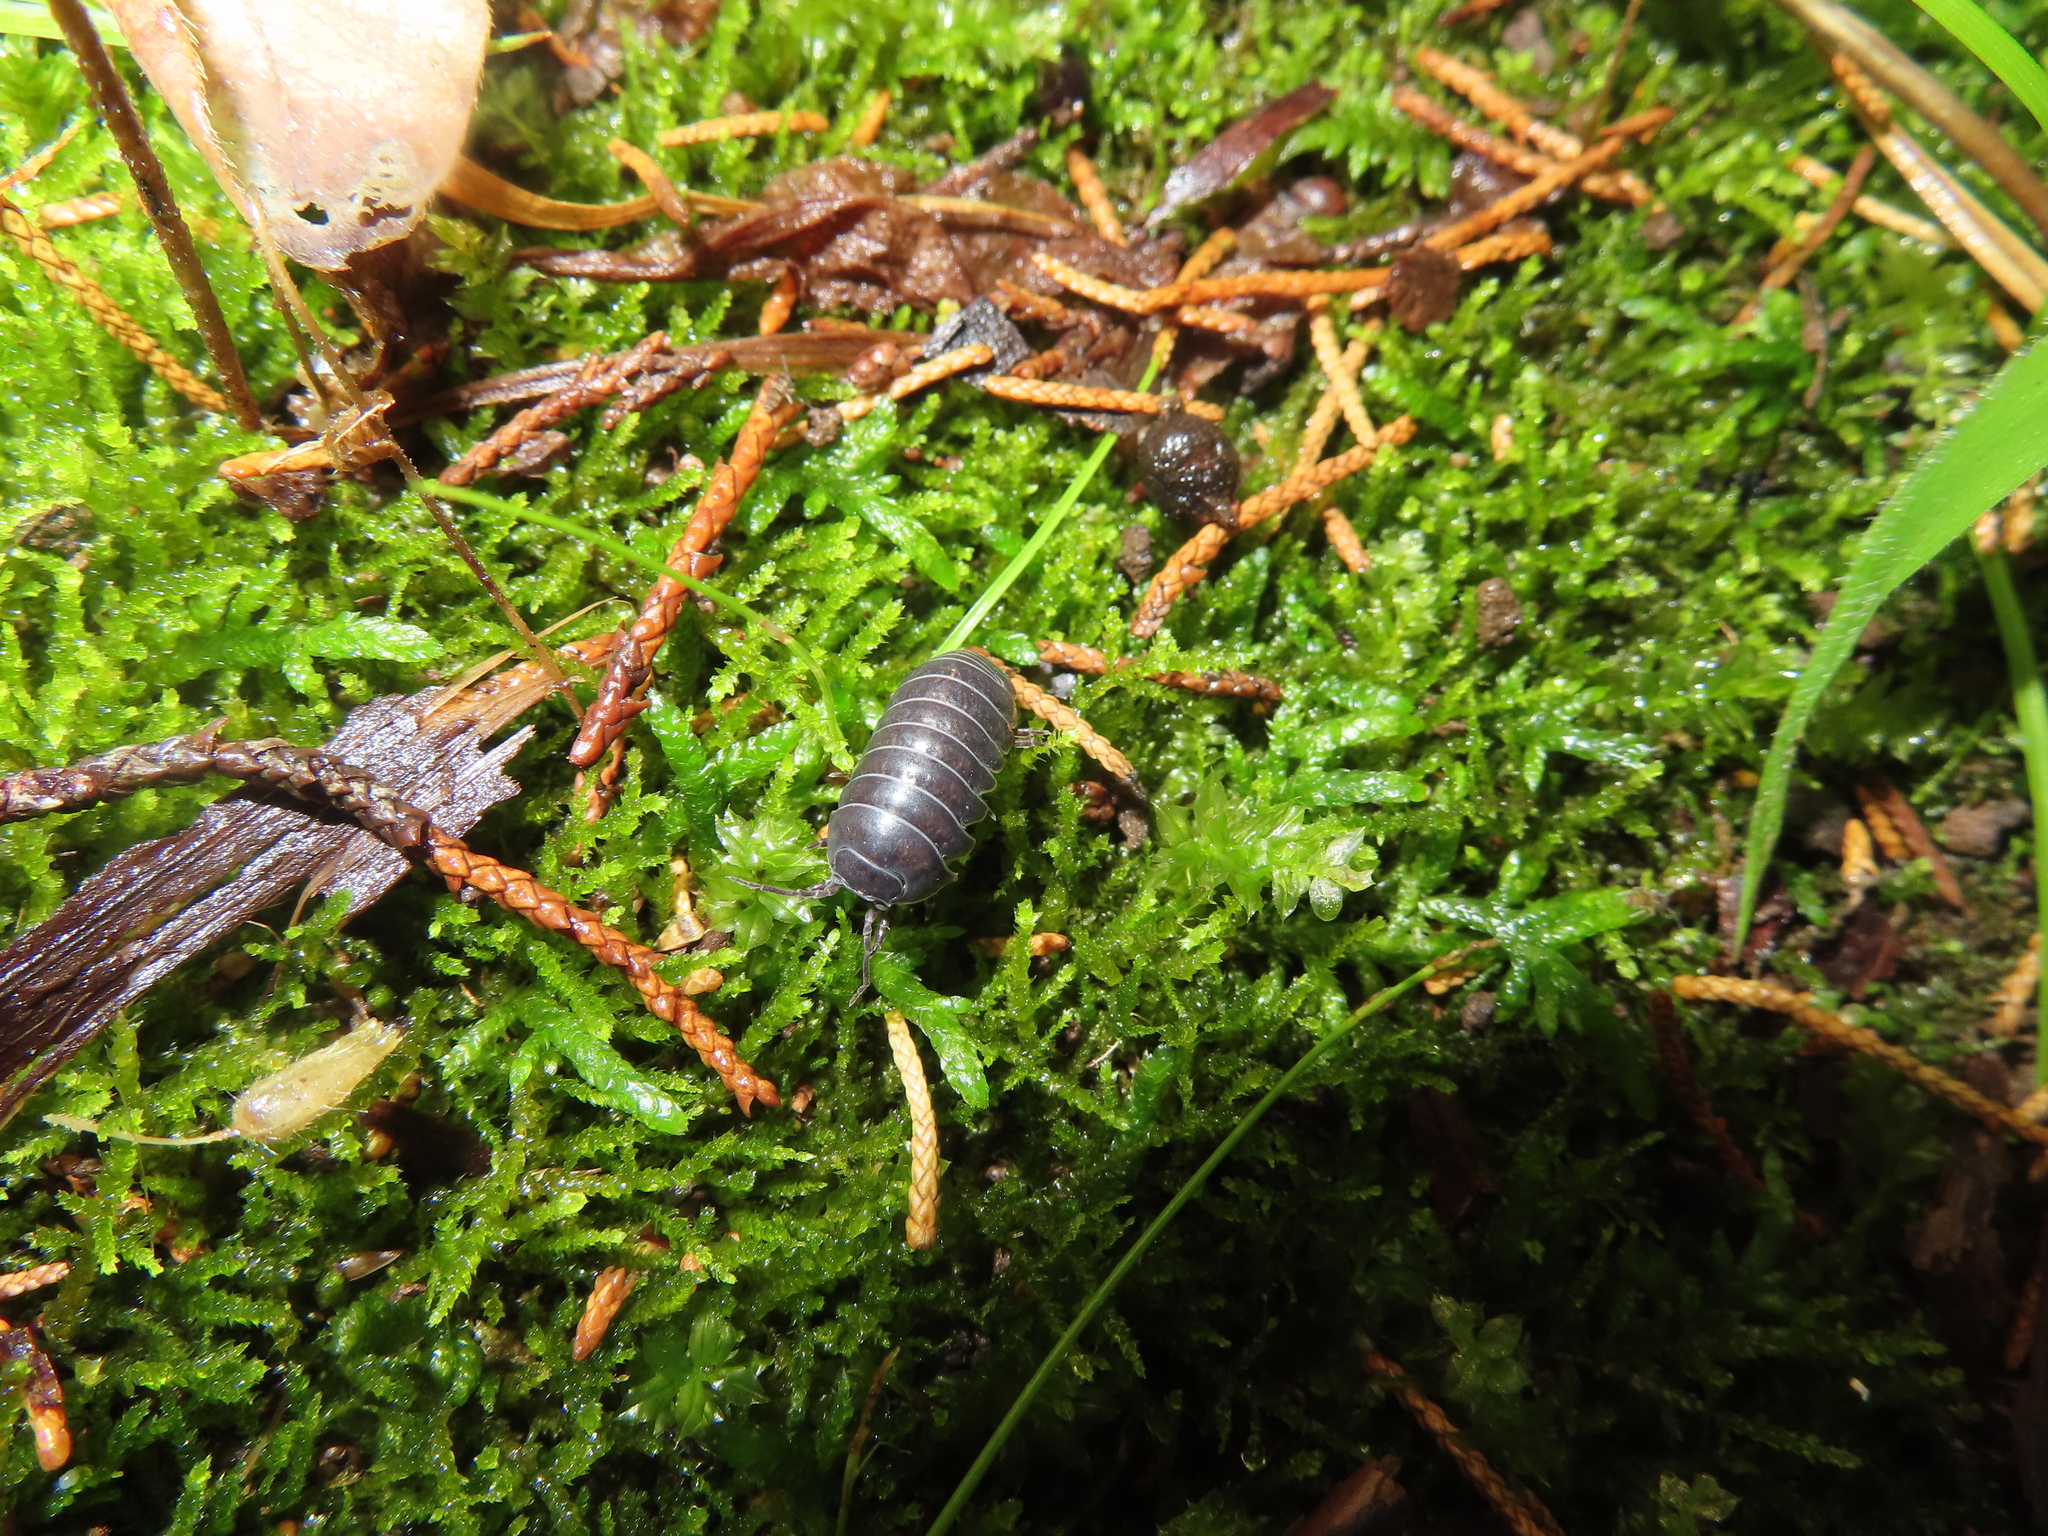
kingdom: Animalia
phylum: Arthropoda
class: Malacostraca
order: Isopoda
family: Armadillidiidae
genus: Armadillidium
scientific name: Armadillidium vulgare
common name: Common pill woodlouse
